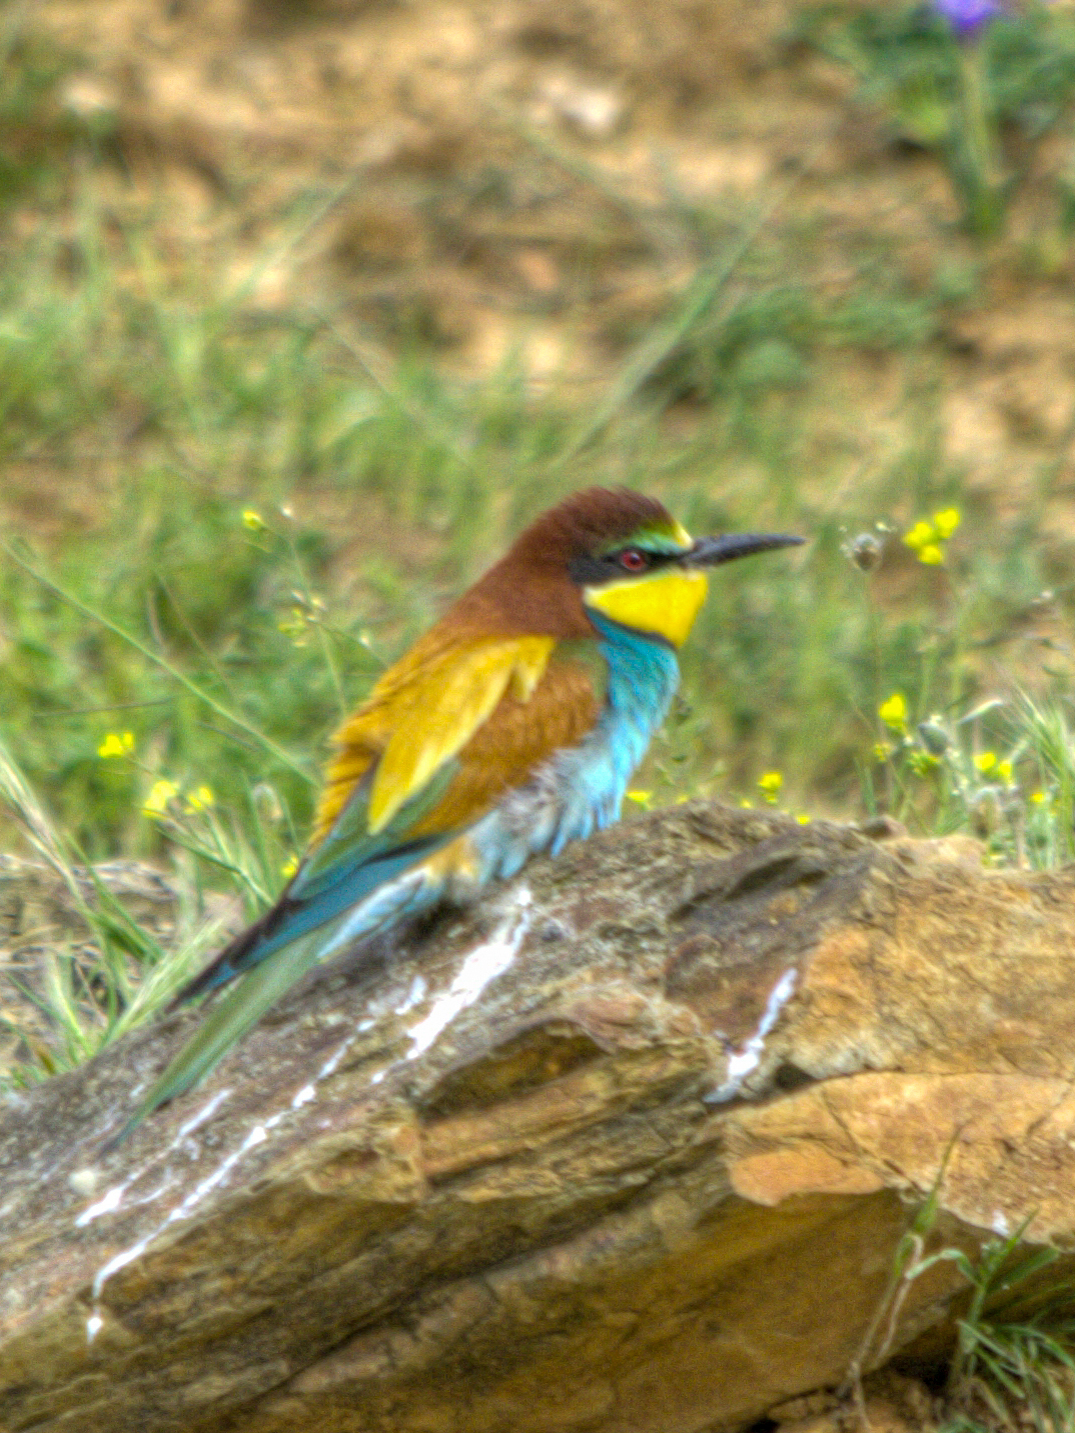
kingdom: Animalia
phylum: Chordata
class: Aves
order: Coraciiformes
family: Meropidae
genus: Merops
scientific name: Merops apiaster
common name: European bee-eater
